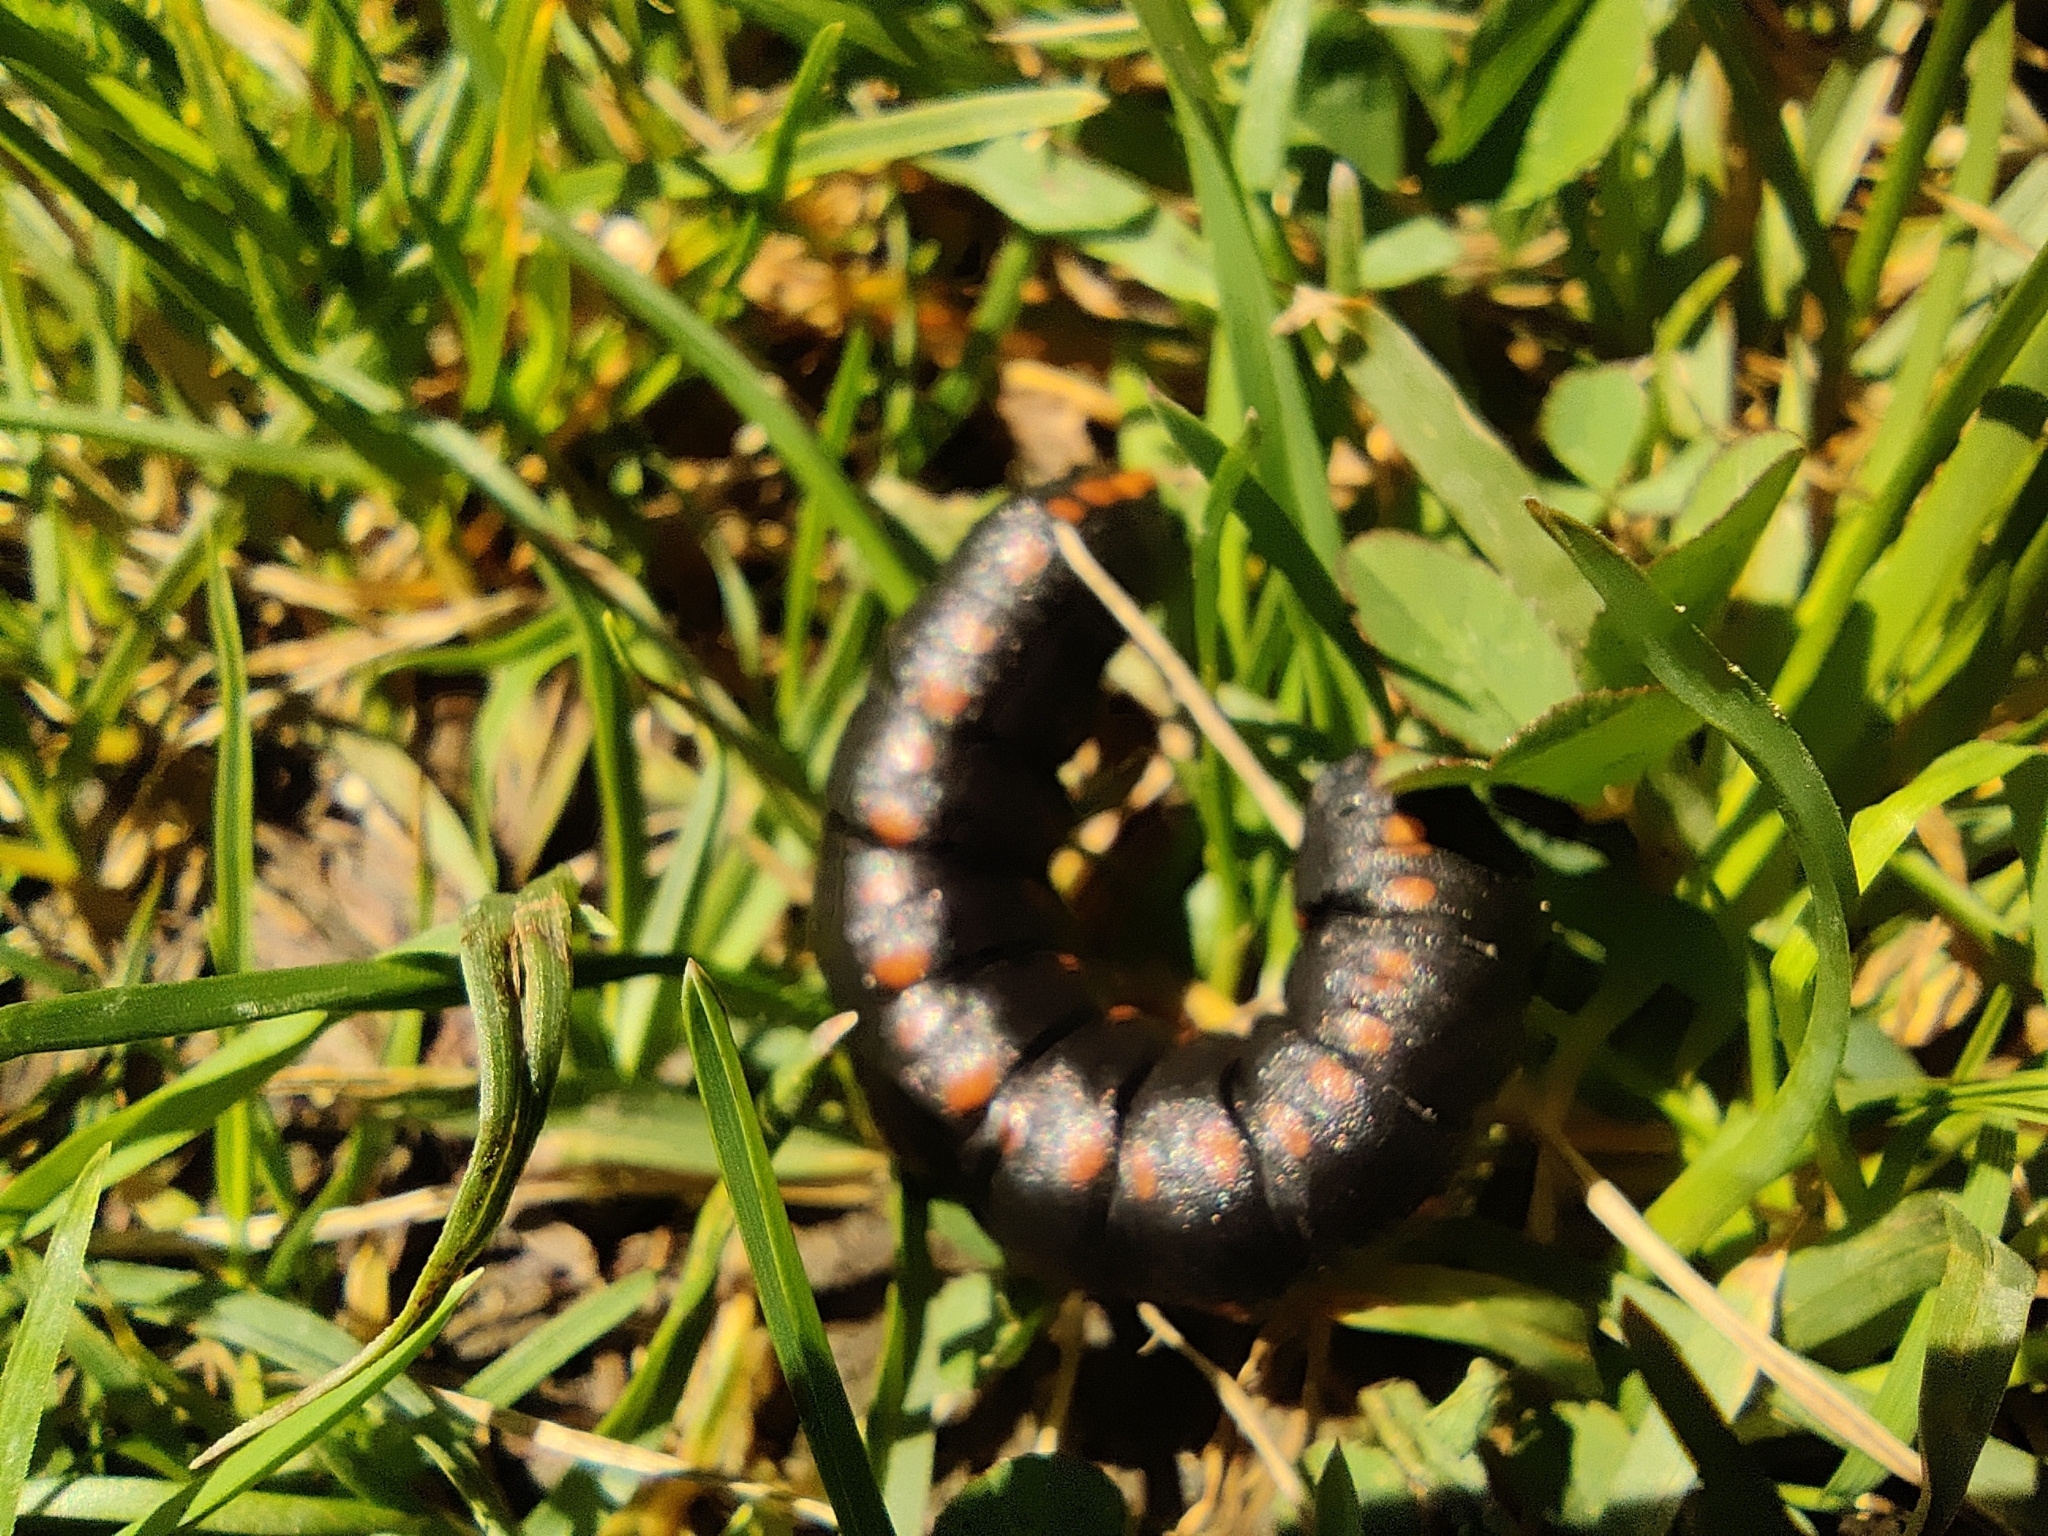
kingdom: Animalia
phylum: Arthropoda
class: Insecta
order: Lepidoptera
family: Noctuidae
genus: Cucullia
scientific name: Cucullia lucifuga
